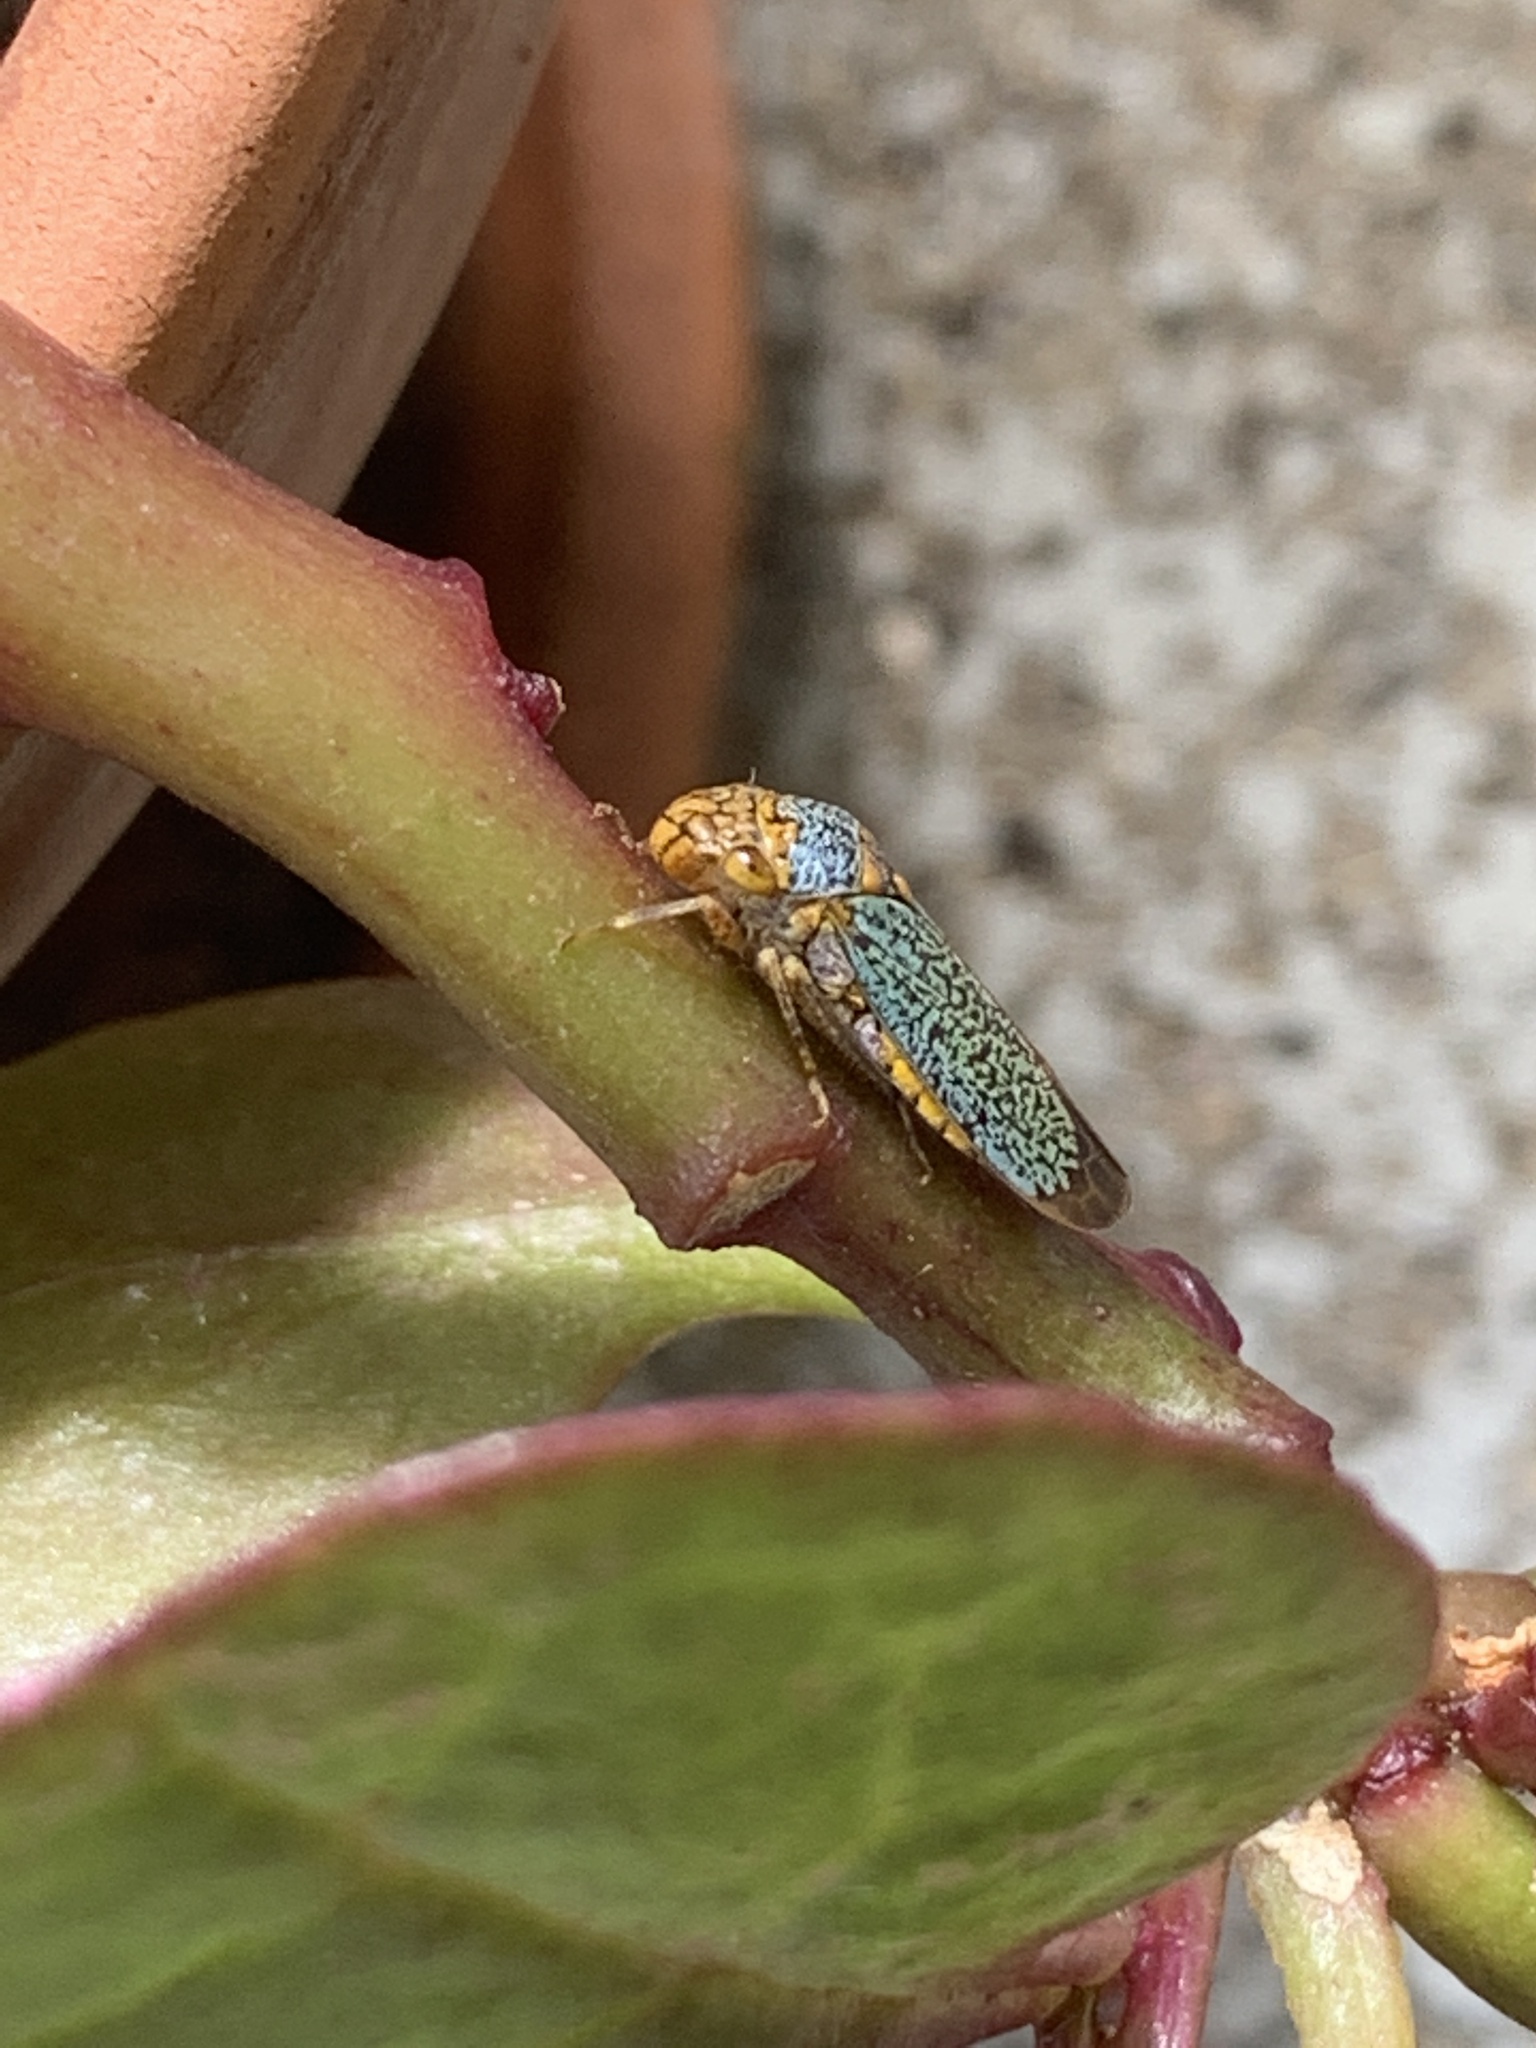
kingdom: Animalia
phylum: Arthropoda
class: Insecta
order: Hemiptera
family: Cicadellidae
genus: Oncometopia
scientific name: Oncometopia orbona
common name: Broad-headed sharpshooter
